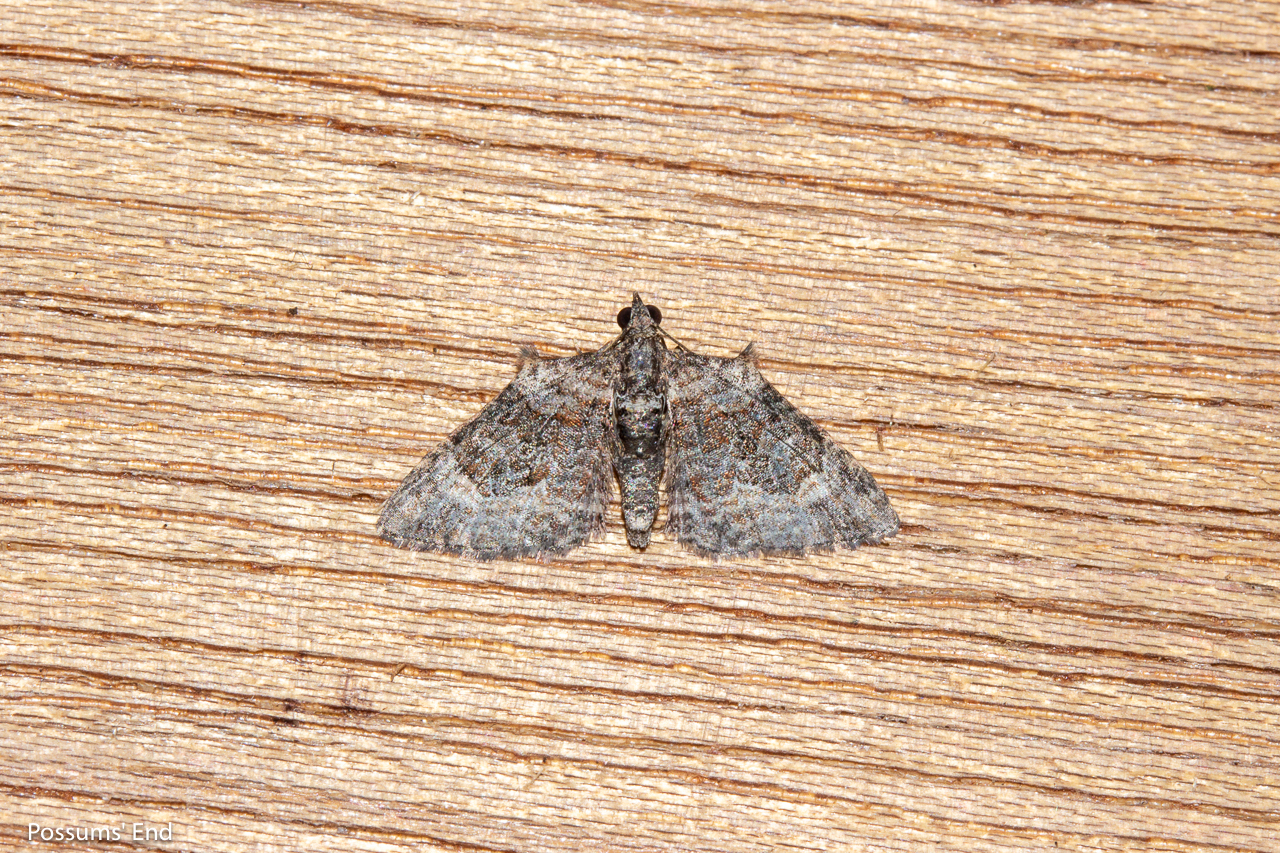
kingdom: Animalia
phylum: Arthropoda
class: Insecta
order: Lepidoptera
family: Geometridae
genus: Phrissogonus
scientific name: Phrissogonus laticostata
